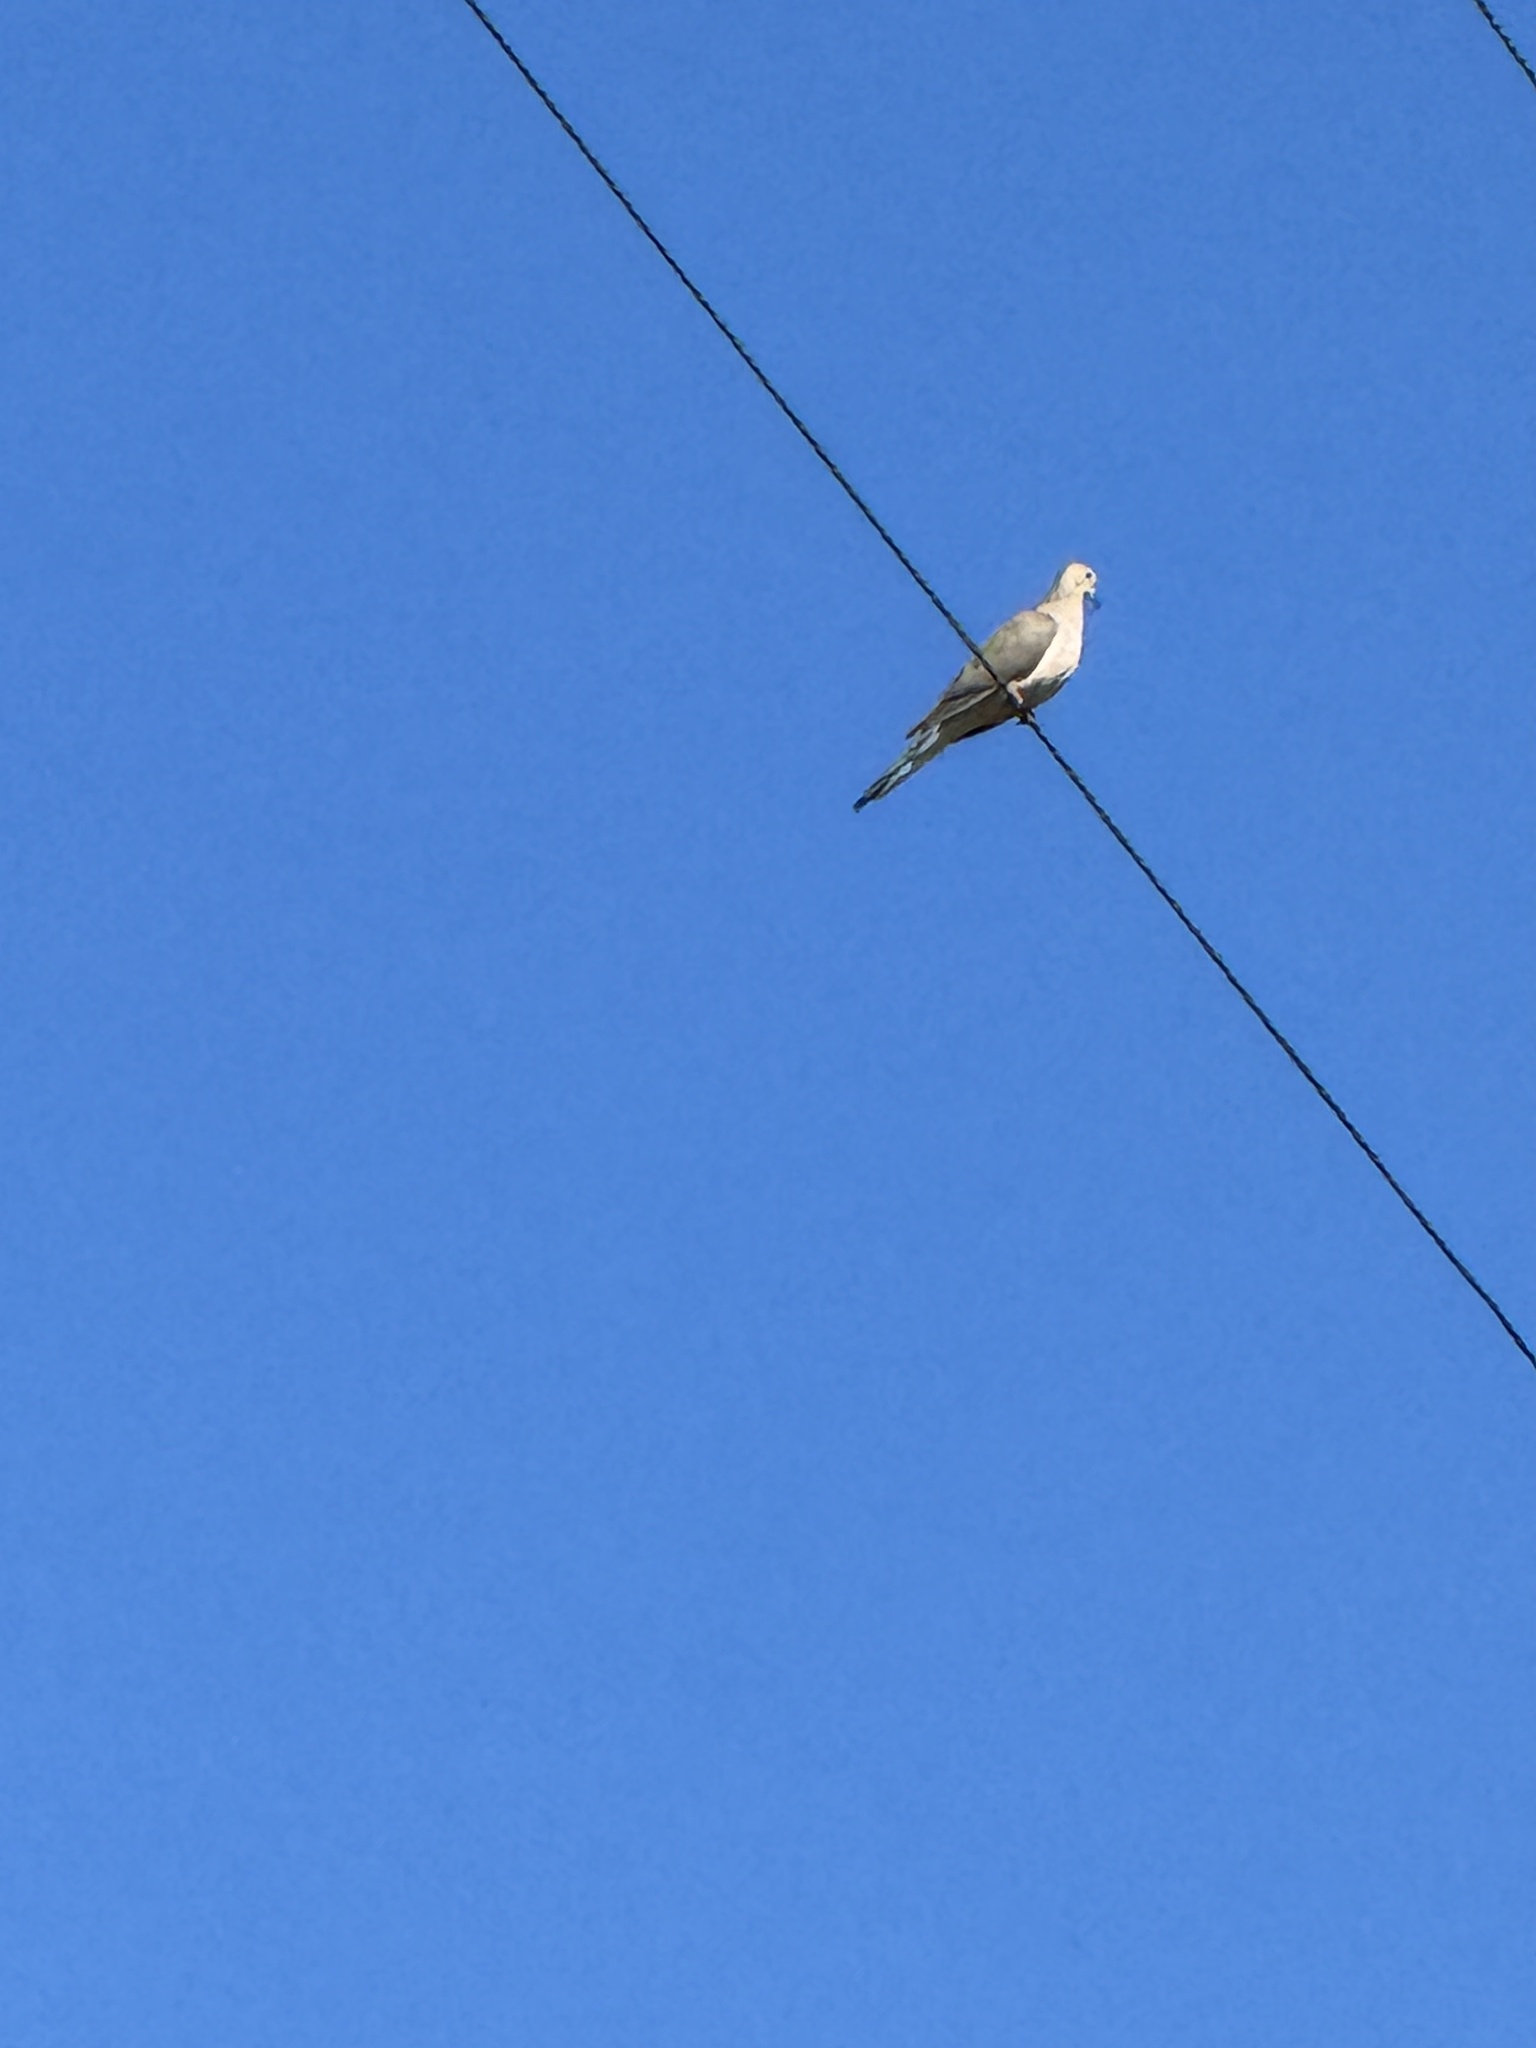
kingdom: Animalia
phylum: Chordata
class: Aves
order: Columbiformes
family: Columbidae
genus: Zenaida
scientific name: Zenaida macroura
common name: Mourning dove
